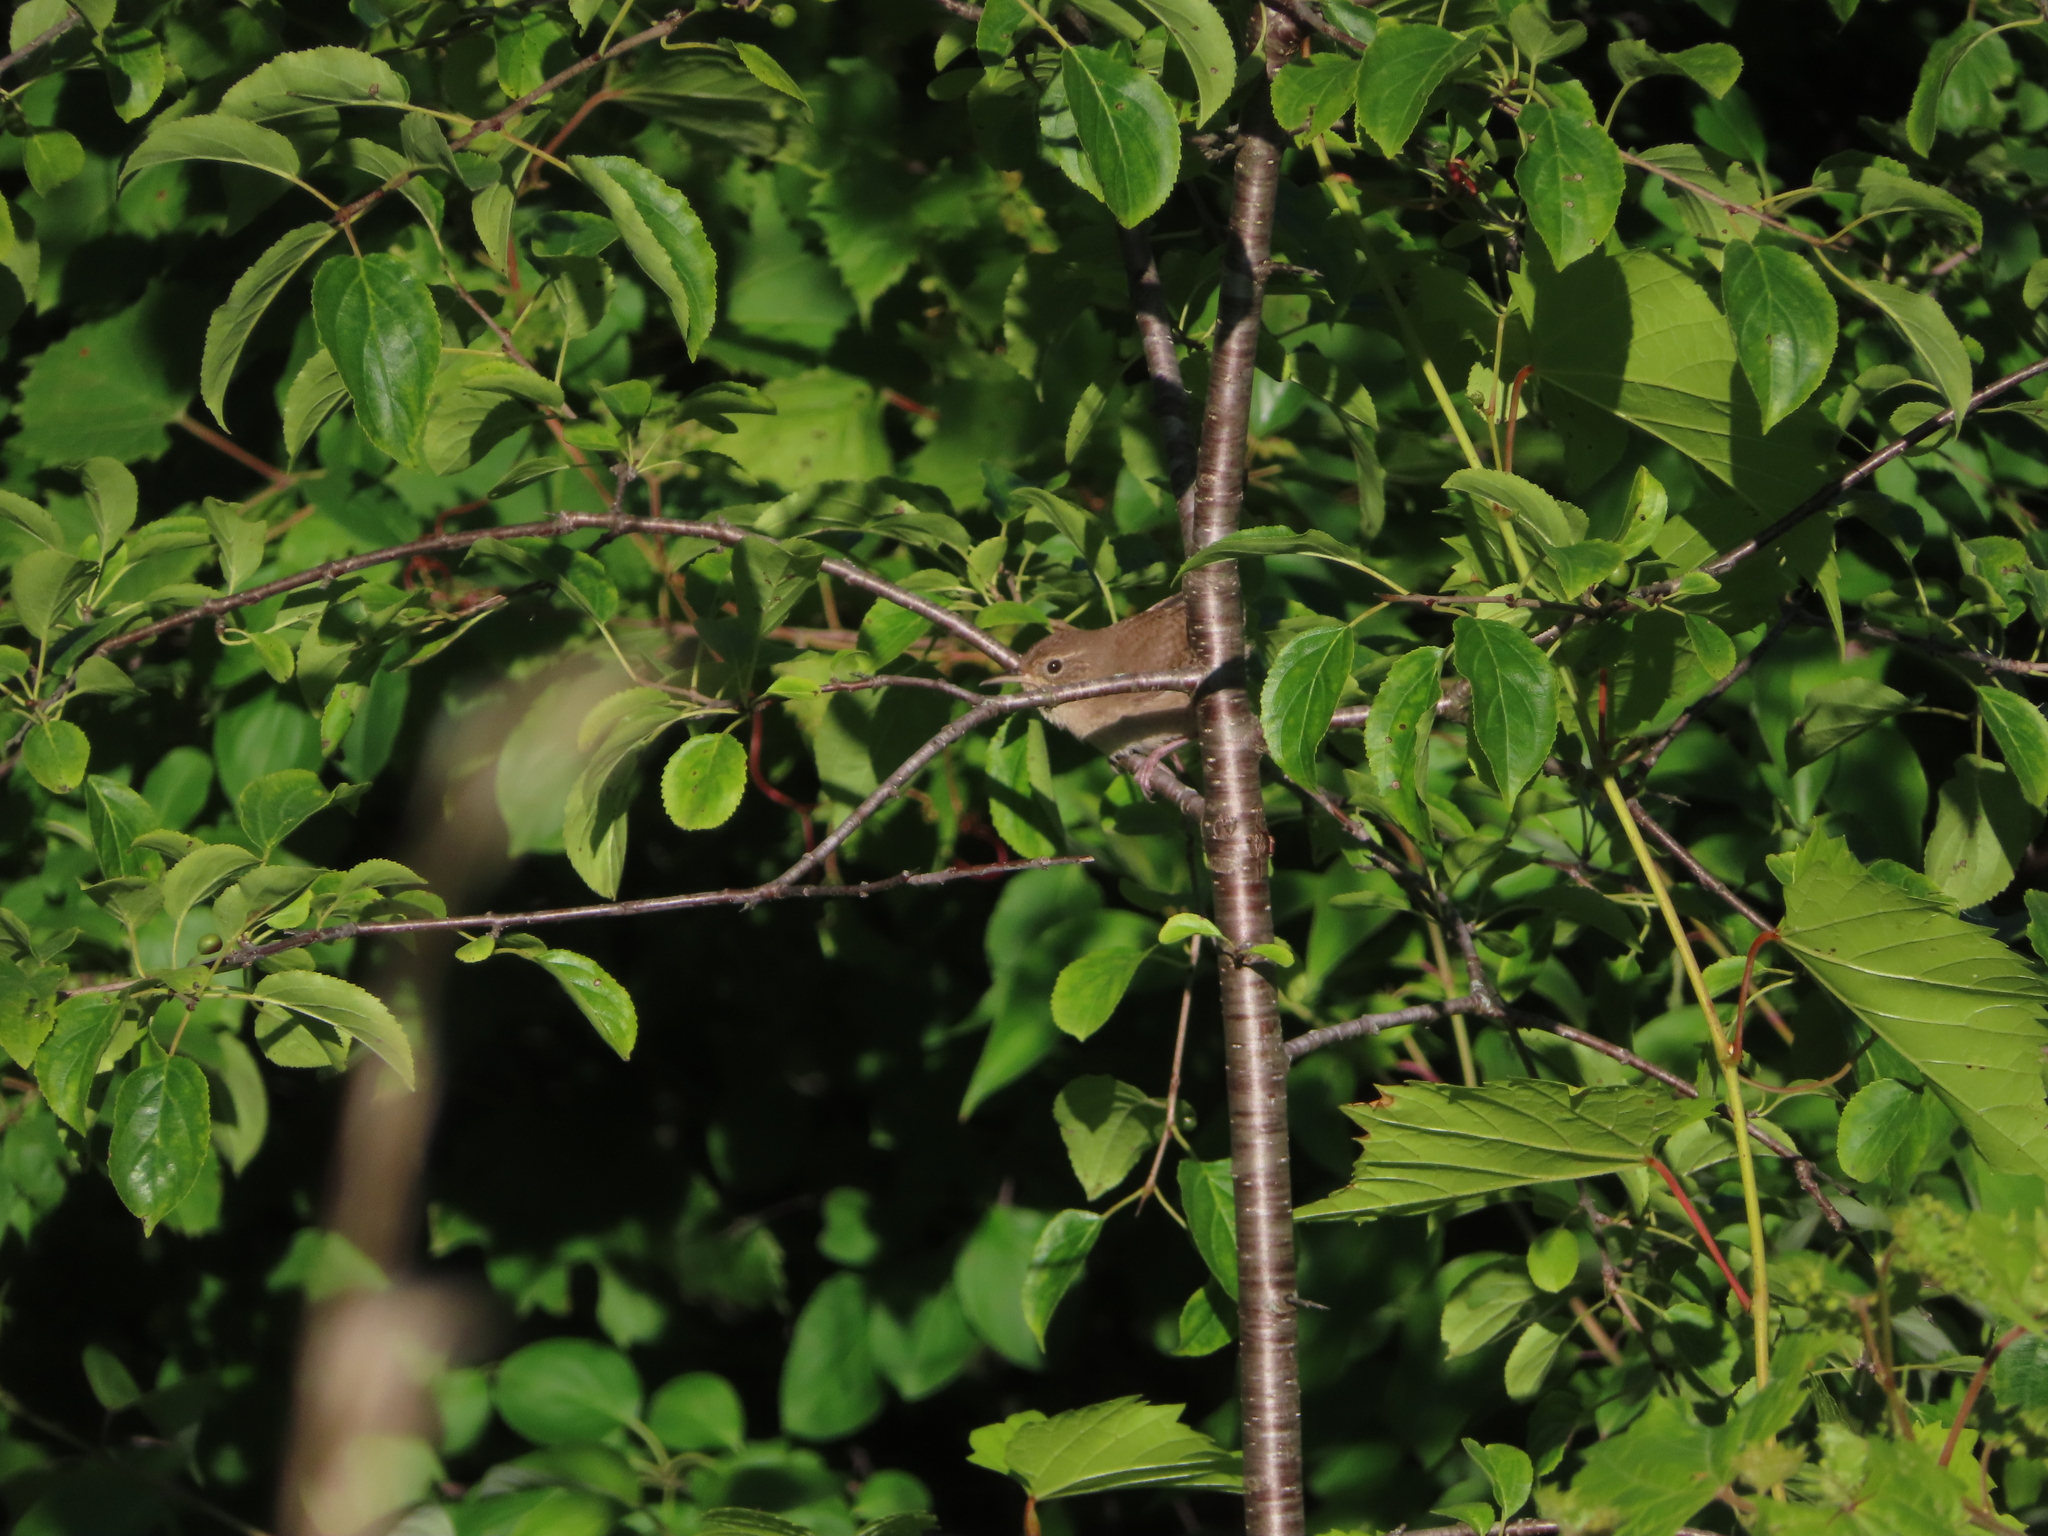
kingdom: Animalia
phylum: Chordata
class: Aves
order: Passeriformes
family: Troglodytidae
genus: Troglodytes
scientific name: Troglodytes aedon
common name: House wren
